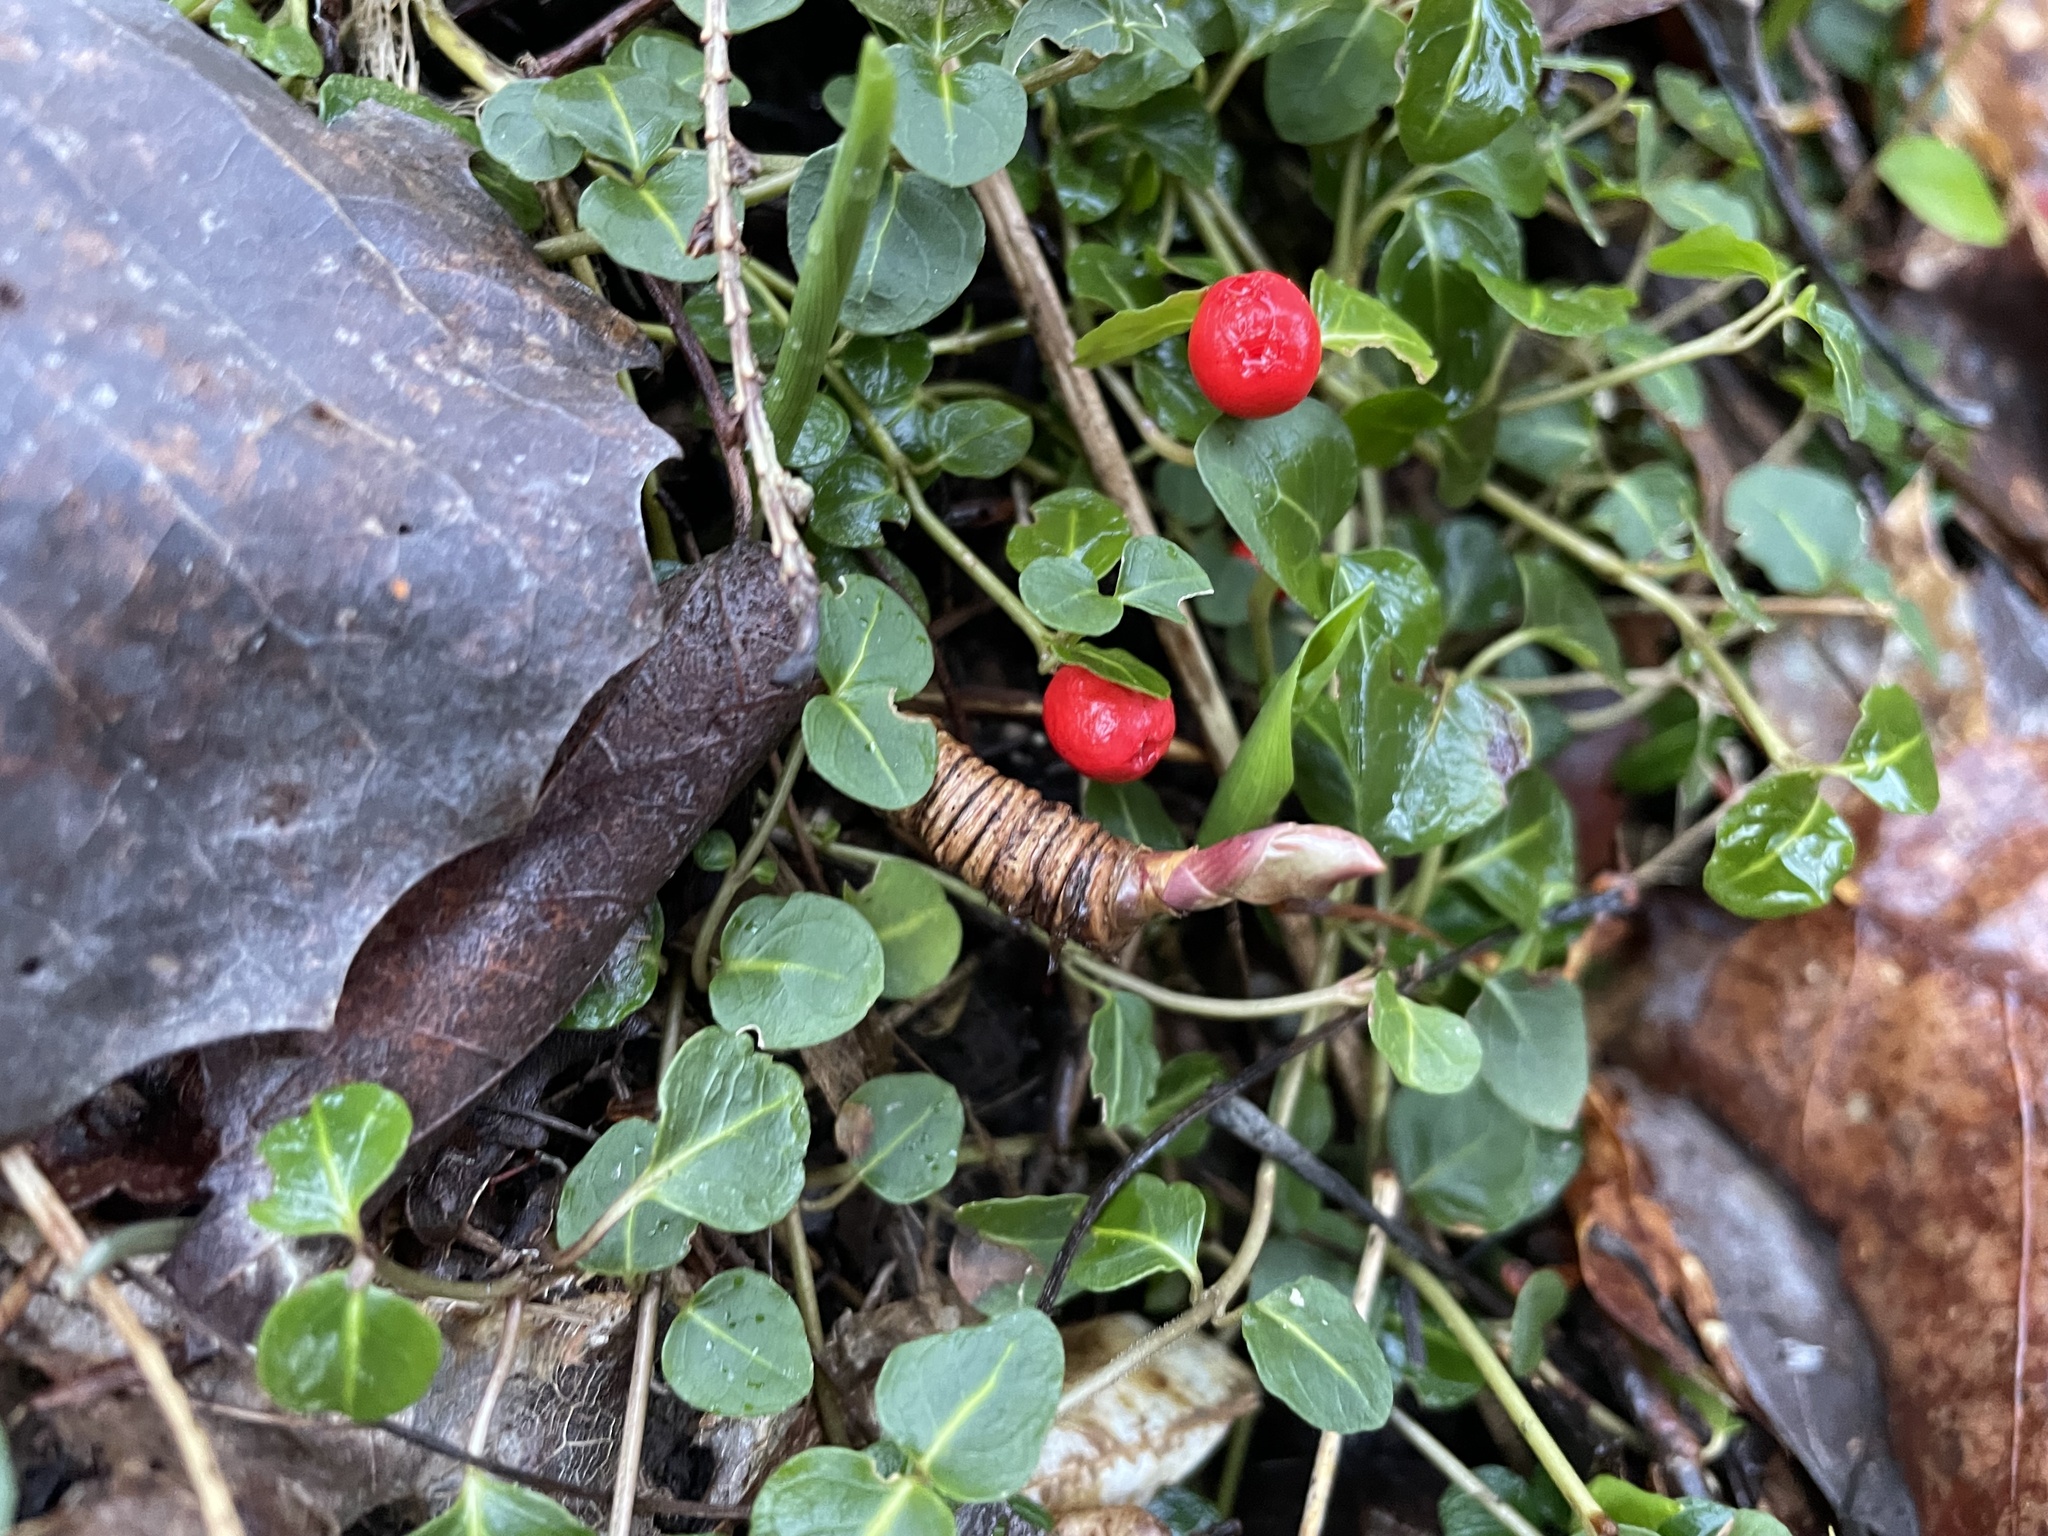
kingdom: Plantae
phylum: Tracheophyta
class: Magnoliopsida
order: Apiales
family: Araliaceae
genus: Aralia
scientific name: Aralia nudicaulis
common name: Wild sarsaparilla
